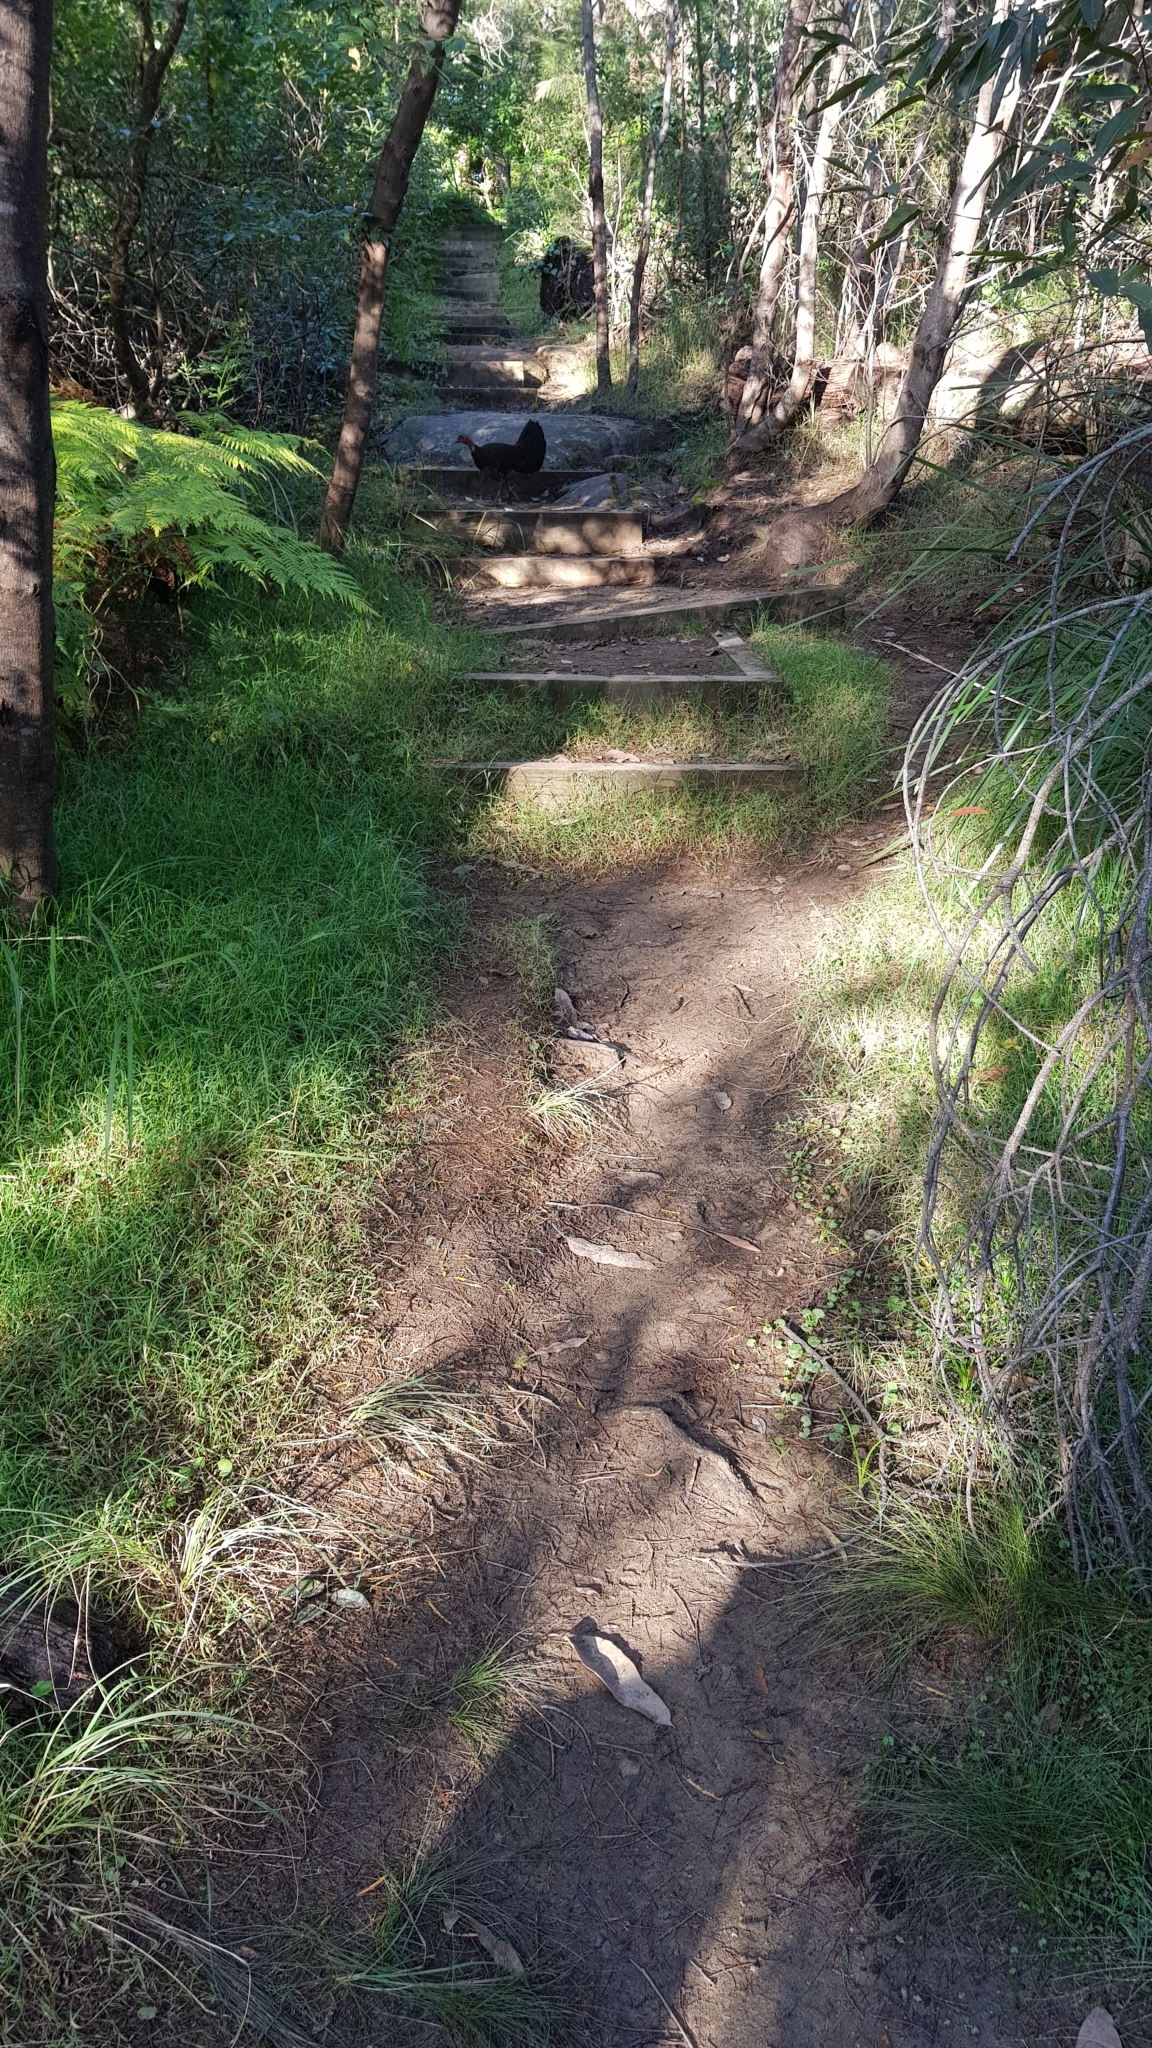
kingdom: Animalia
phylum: Chordata
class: Aves
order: Galliformes
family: Megapodiidae
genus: Alectura
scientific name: Alectura lathami
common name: Australian brushturkey
